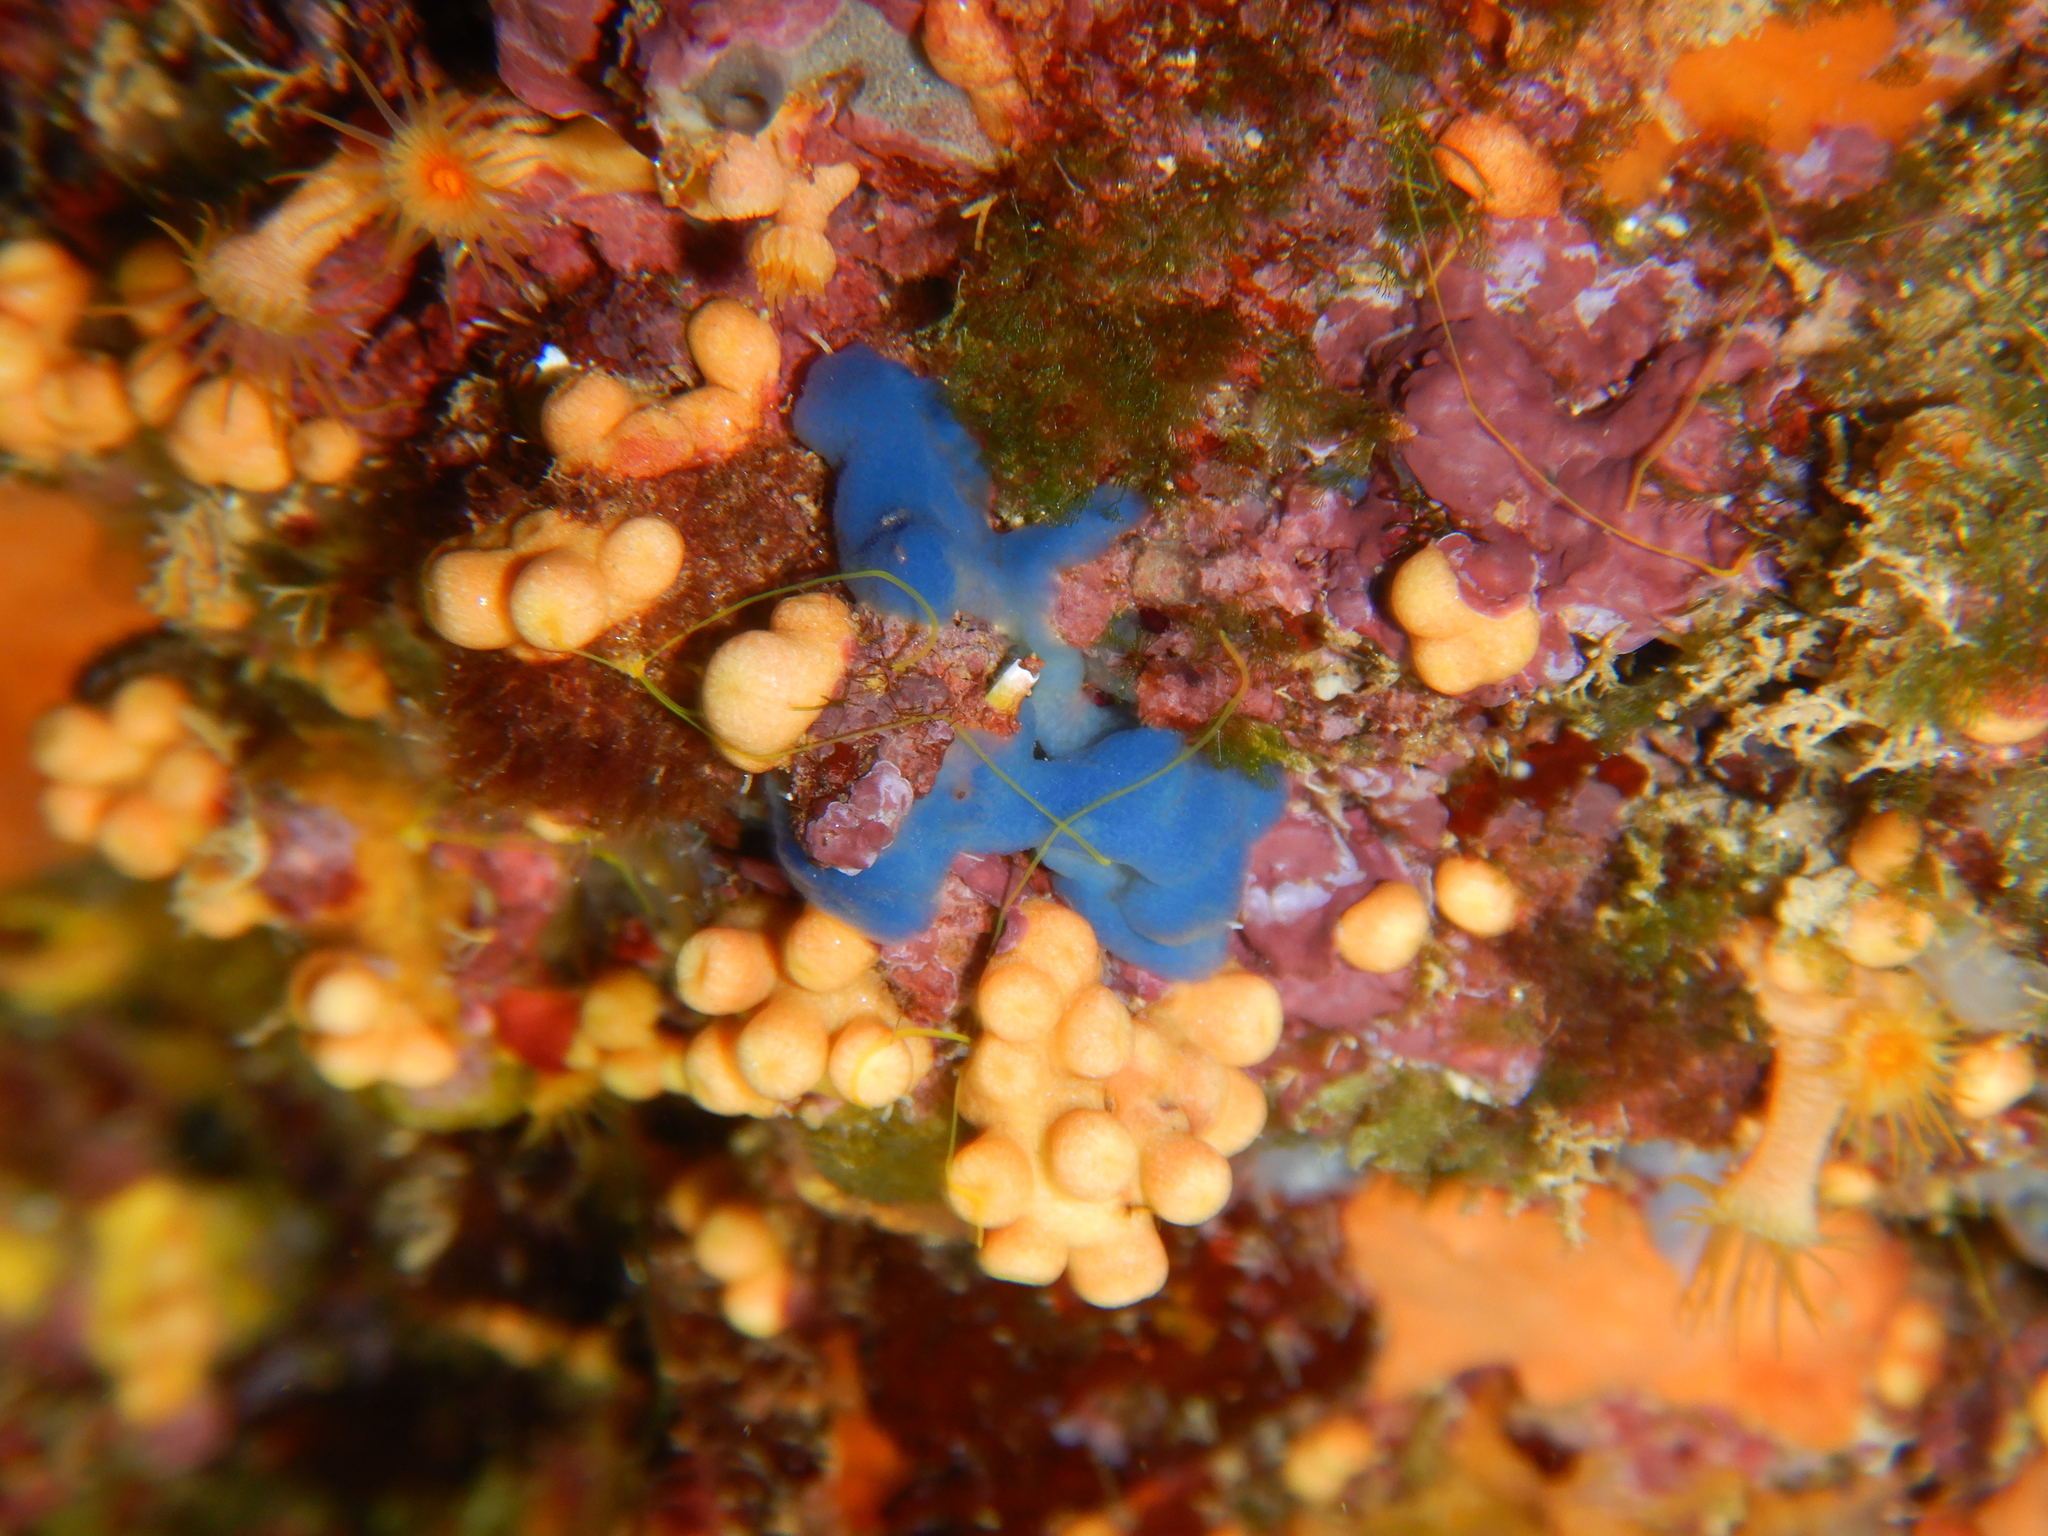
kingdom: Animalia
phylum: Porifera
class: Homoscleromorpha
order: Homosclerophorida
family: Oscarellidae
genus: Oscarella
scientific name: Oscarella lobularis
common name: Flesh sponge
